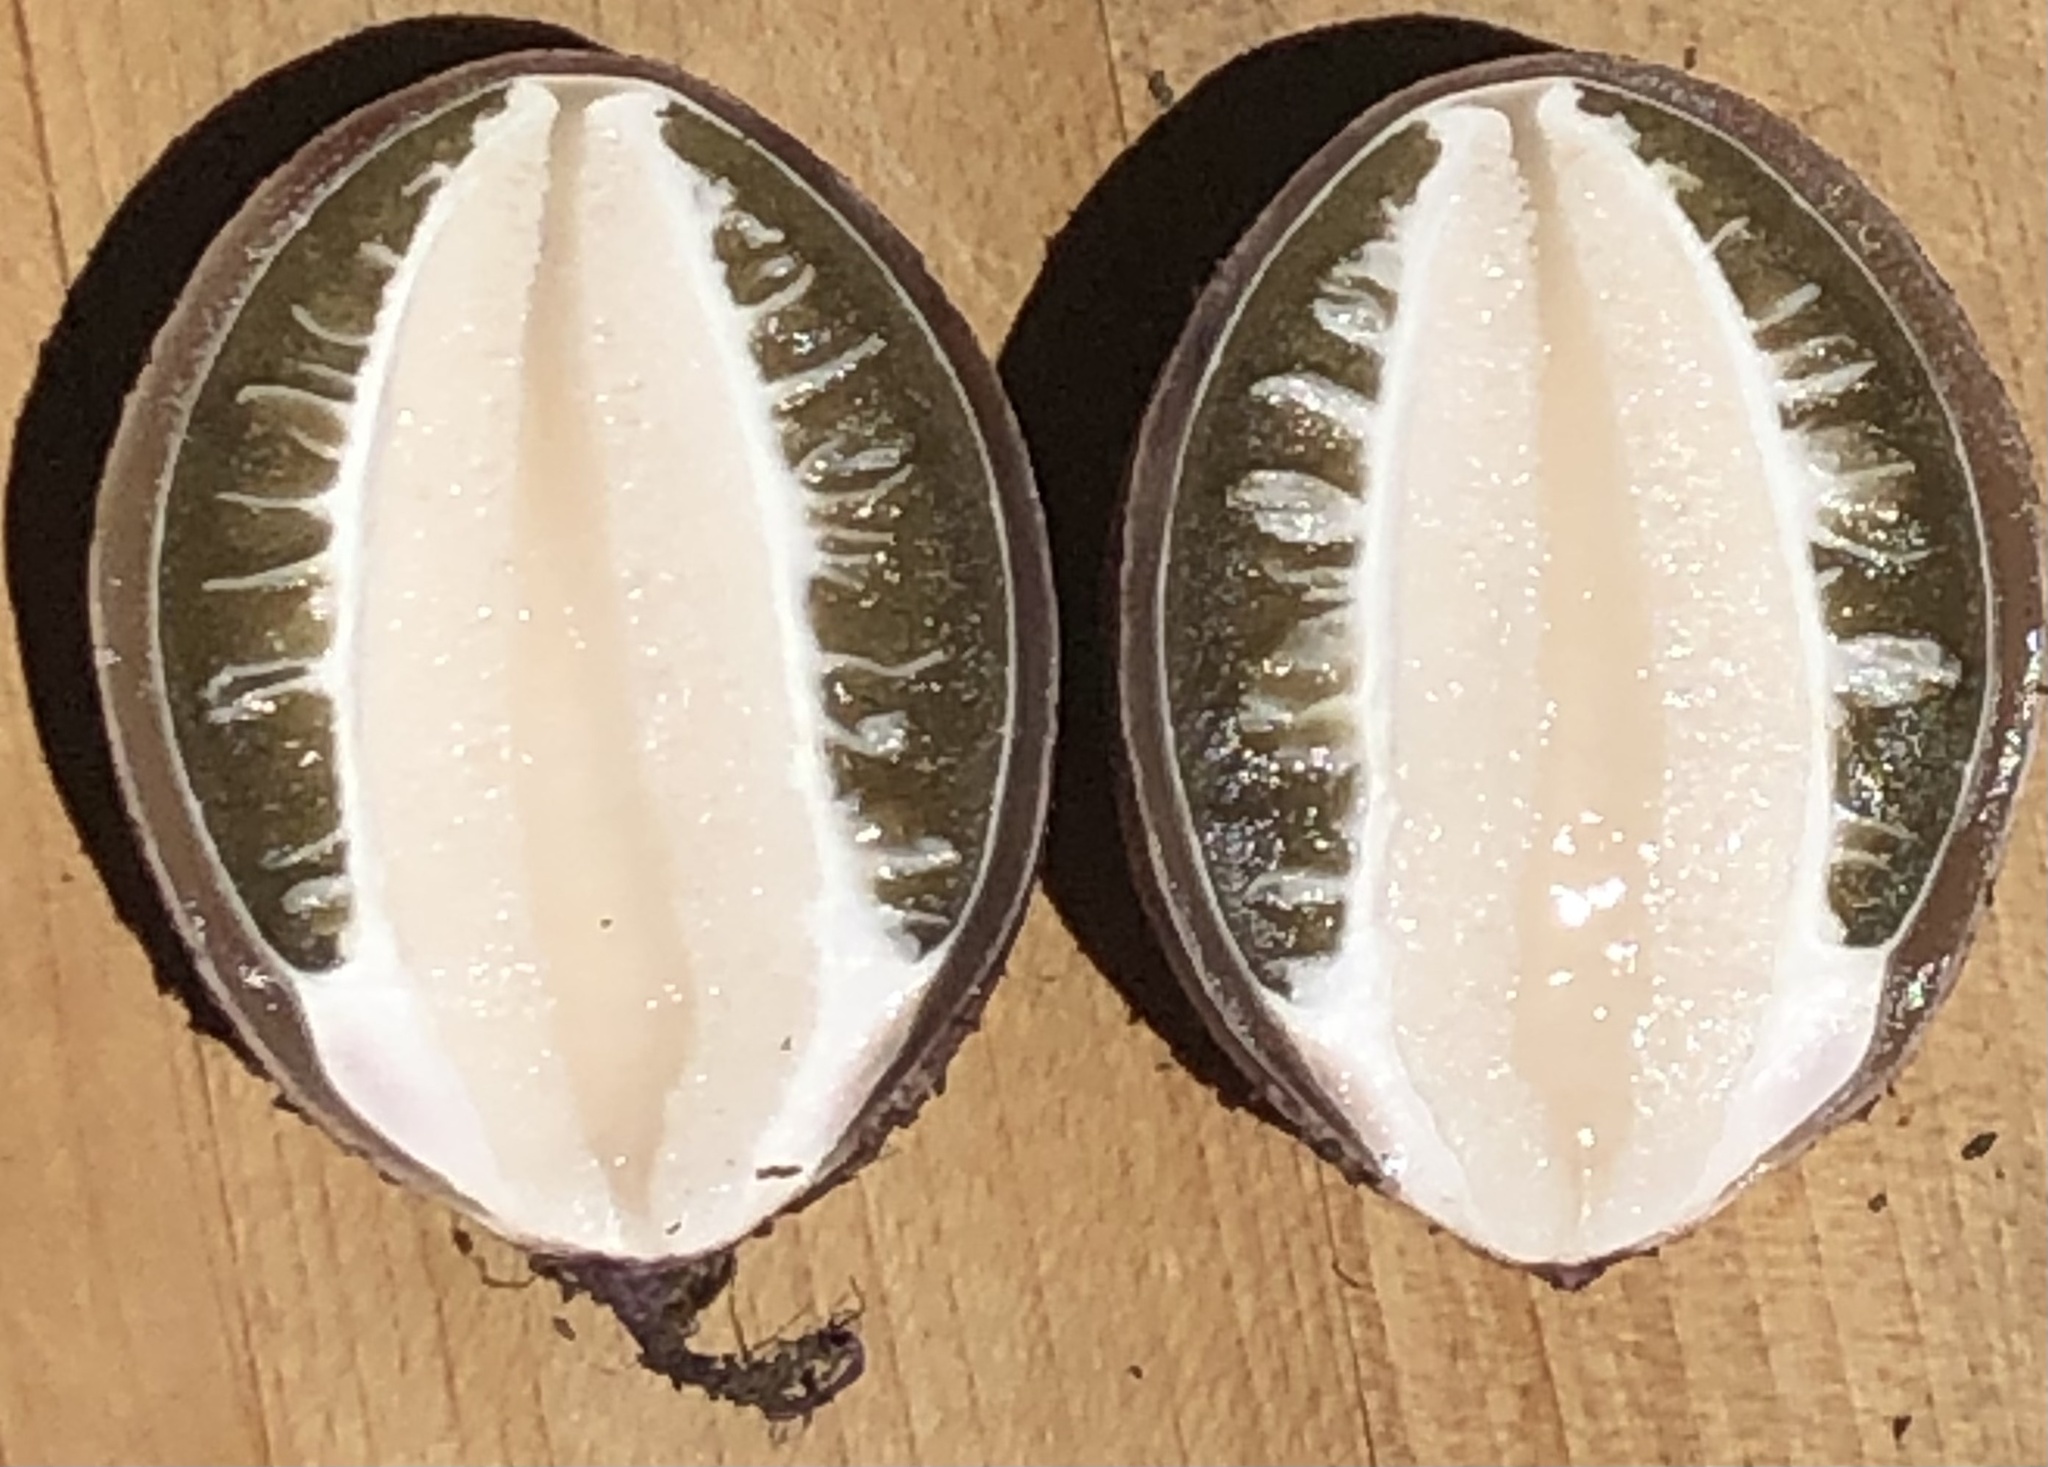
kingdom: Fungi
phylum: Basidiomycota
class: Agaricomycetes
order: Phallales
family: Phallaceae
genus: Phallus
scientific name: Phallus hadriani
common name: Sand stinkhorn
